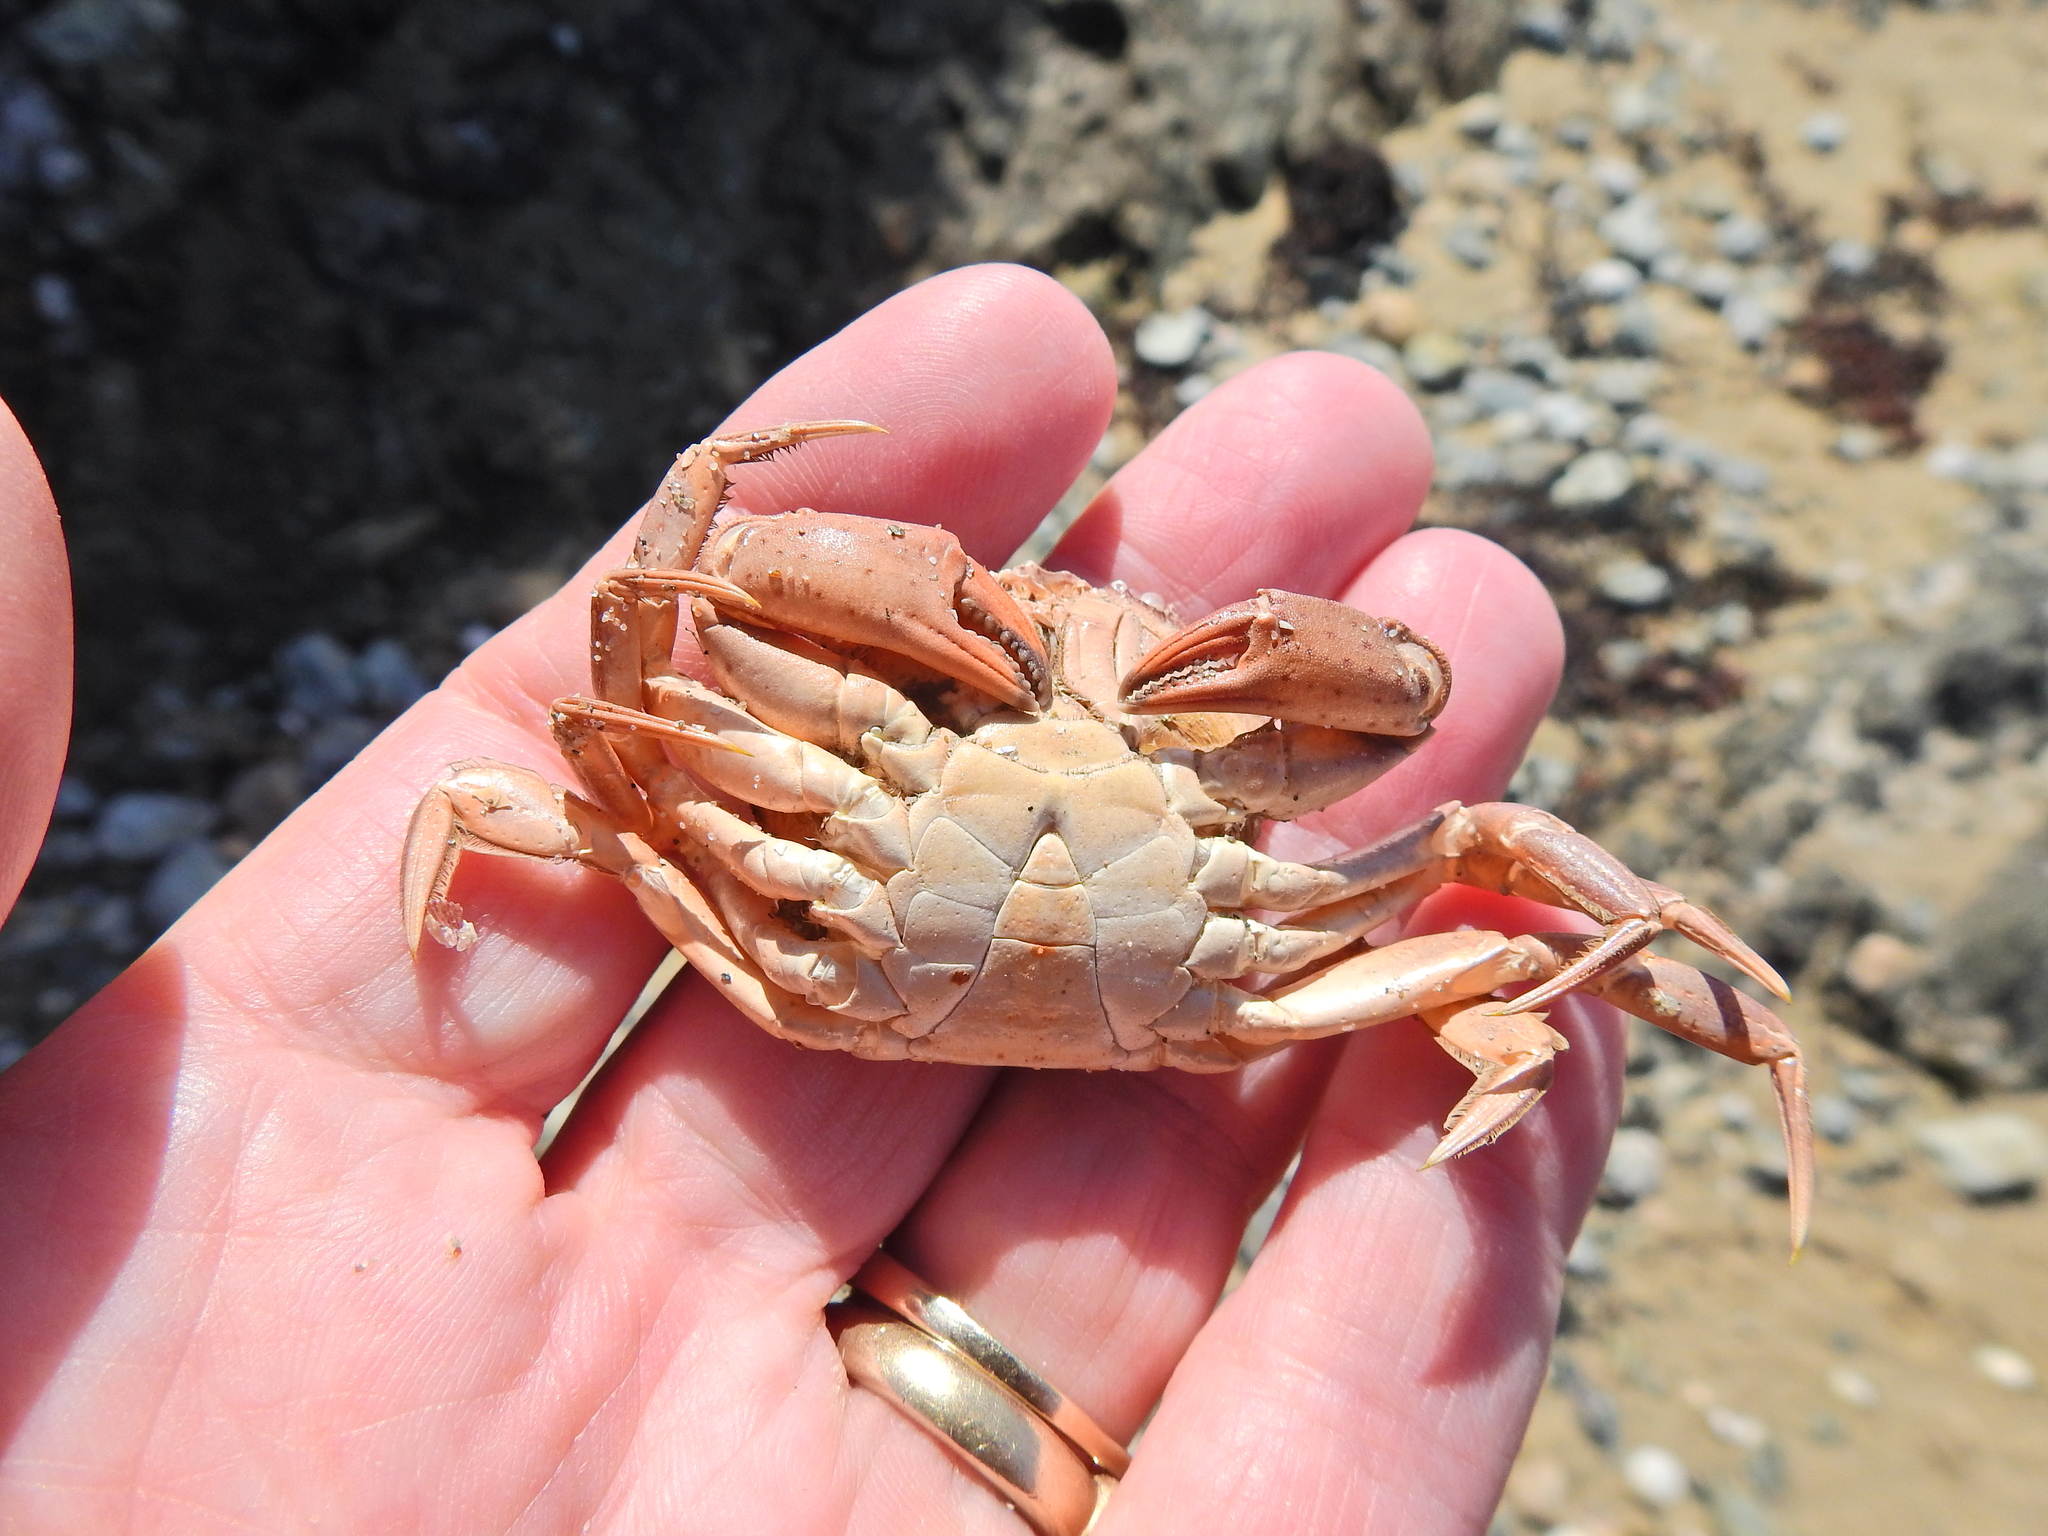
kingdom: Animalia
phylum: Arthropoda
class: Malacostraca
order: Decapoda
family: Carcinidae
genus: Carcinus
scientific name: Carcinus maenas
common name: European green crab
